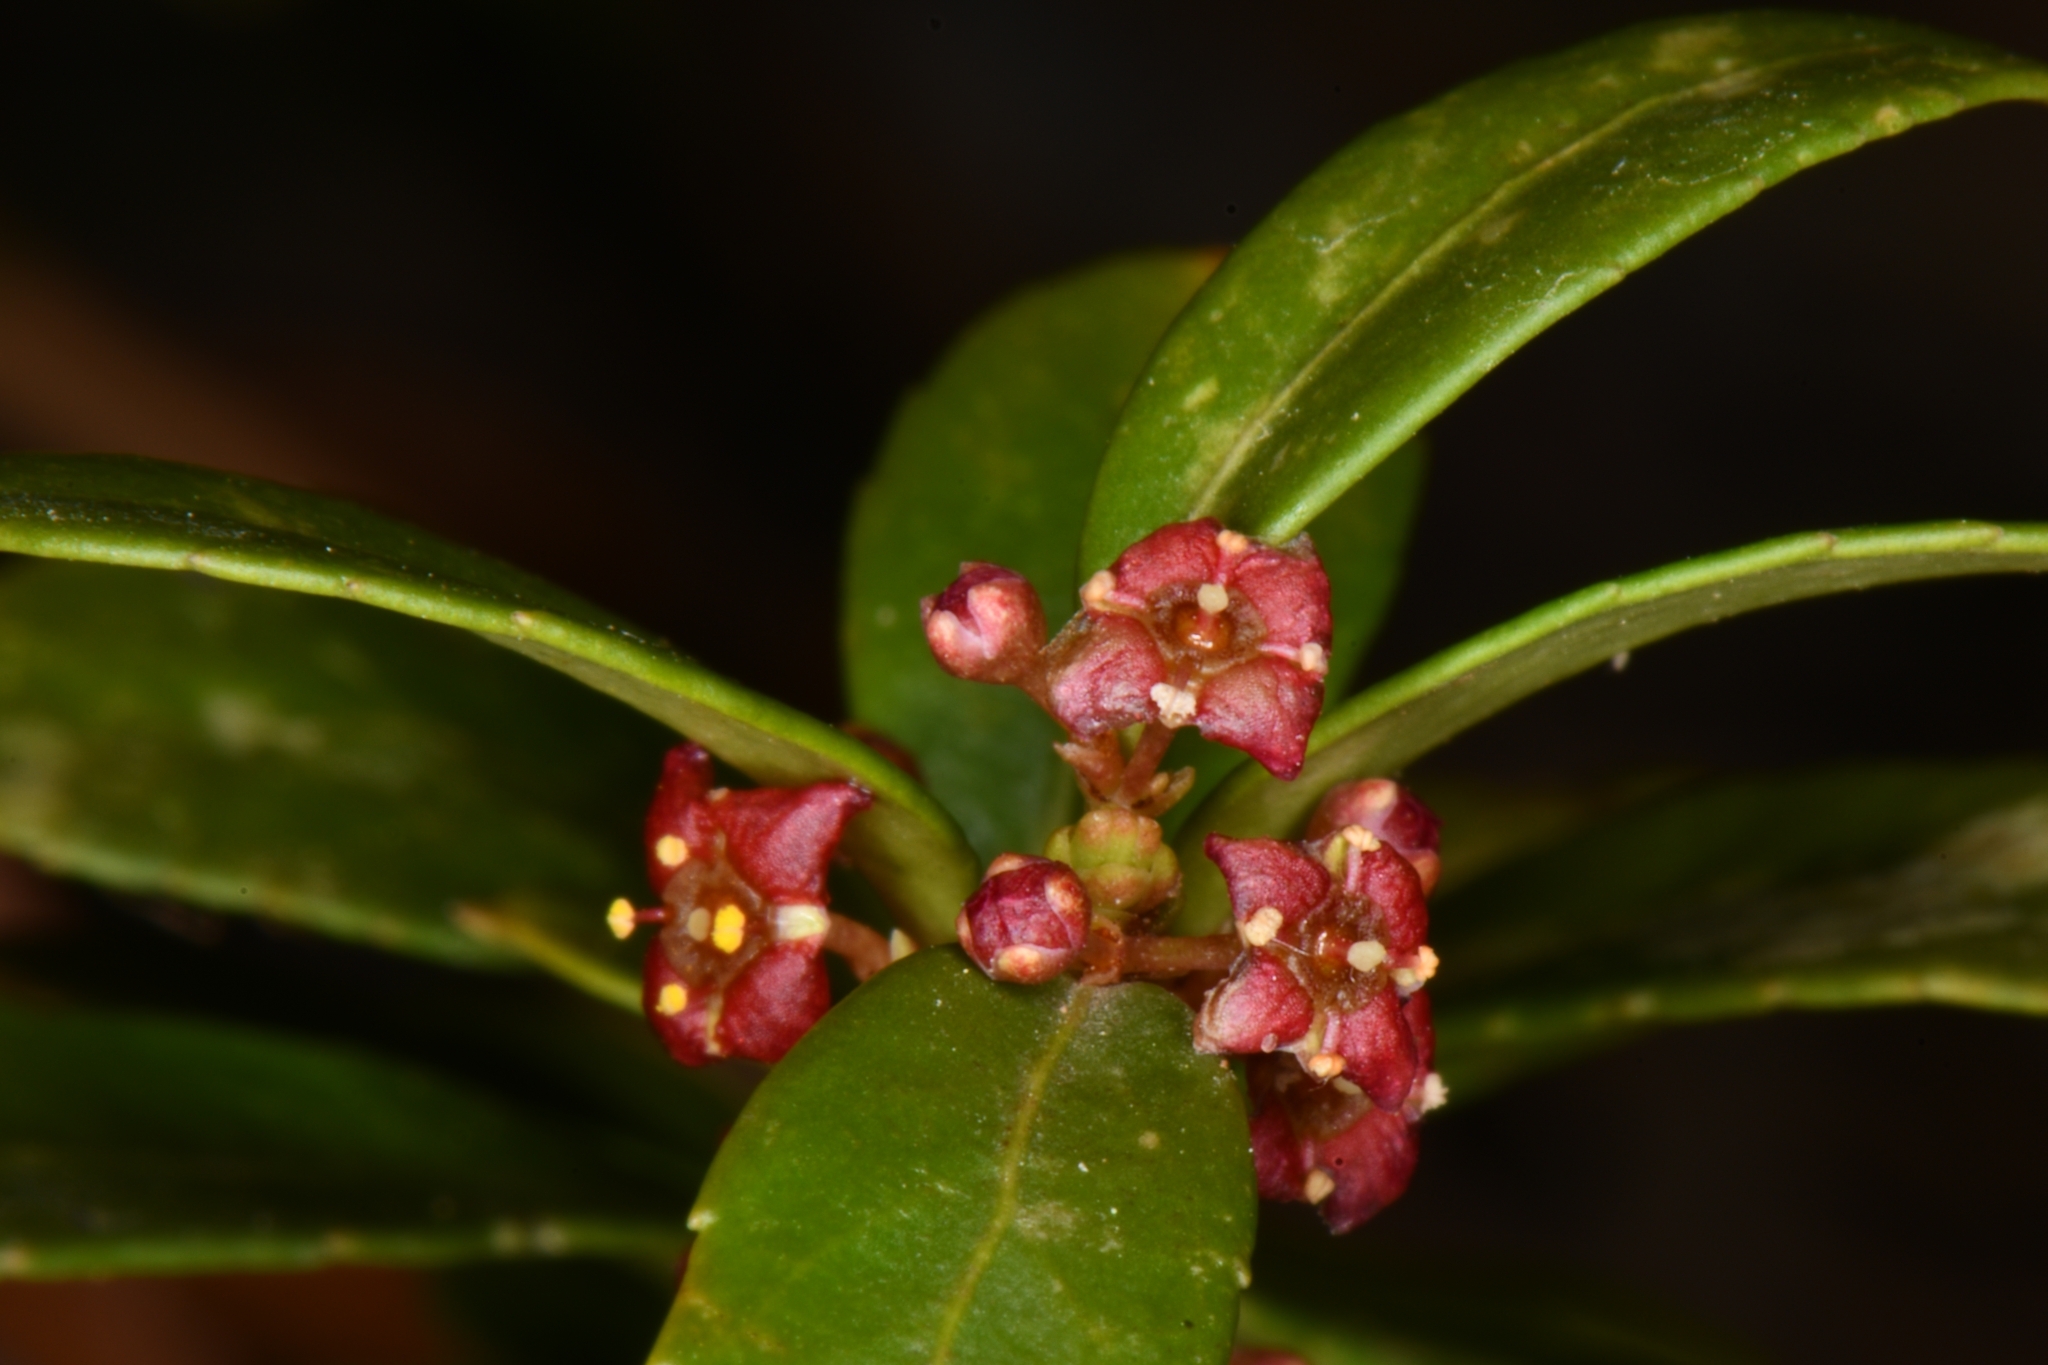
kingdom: Plantae
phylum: Tracheophyta
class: Magnoliopsida
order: Celastrales
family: Celastraceae
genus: Paxistima
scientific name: Paxistima myrsinites
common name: Mountain-lover
